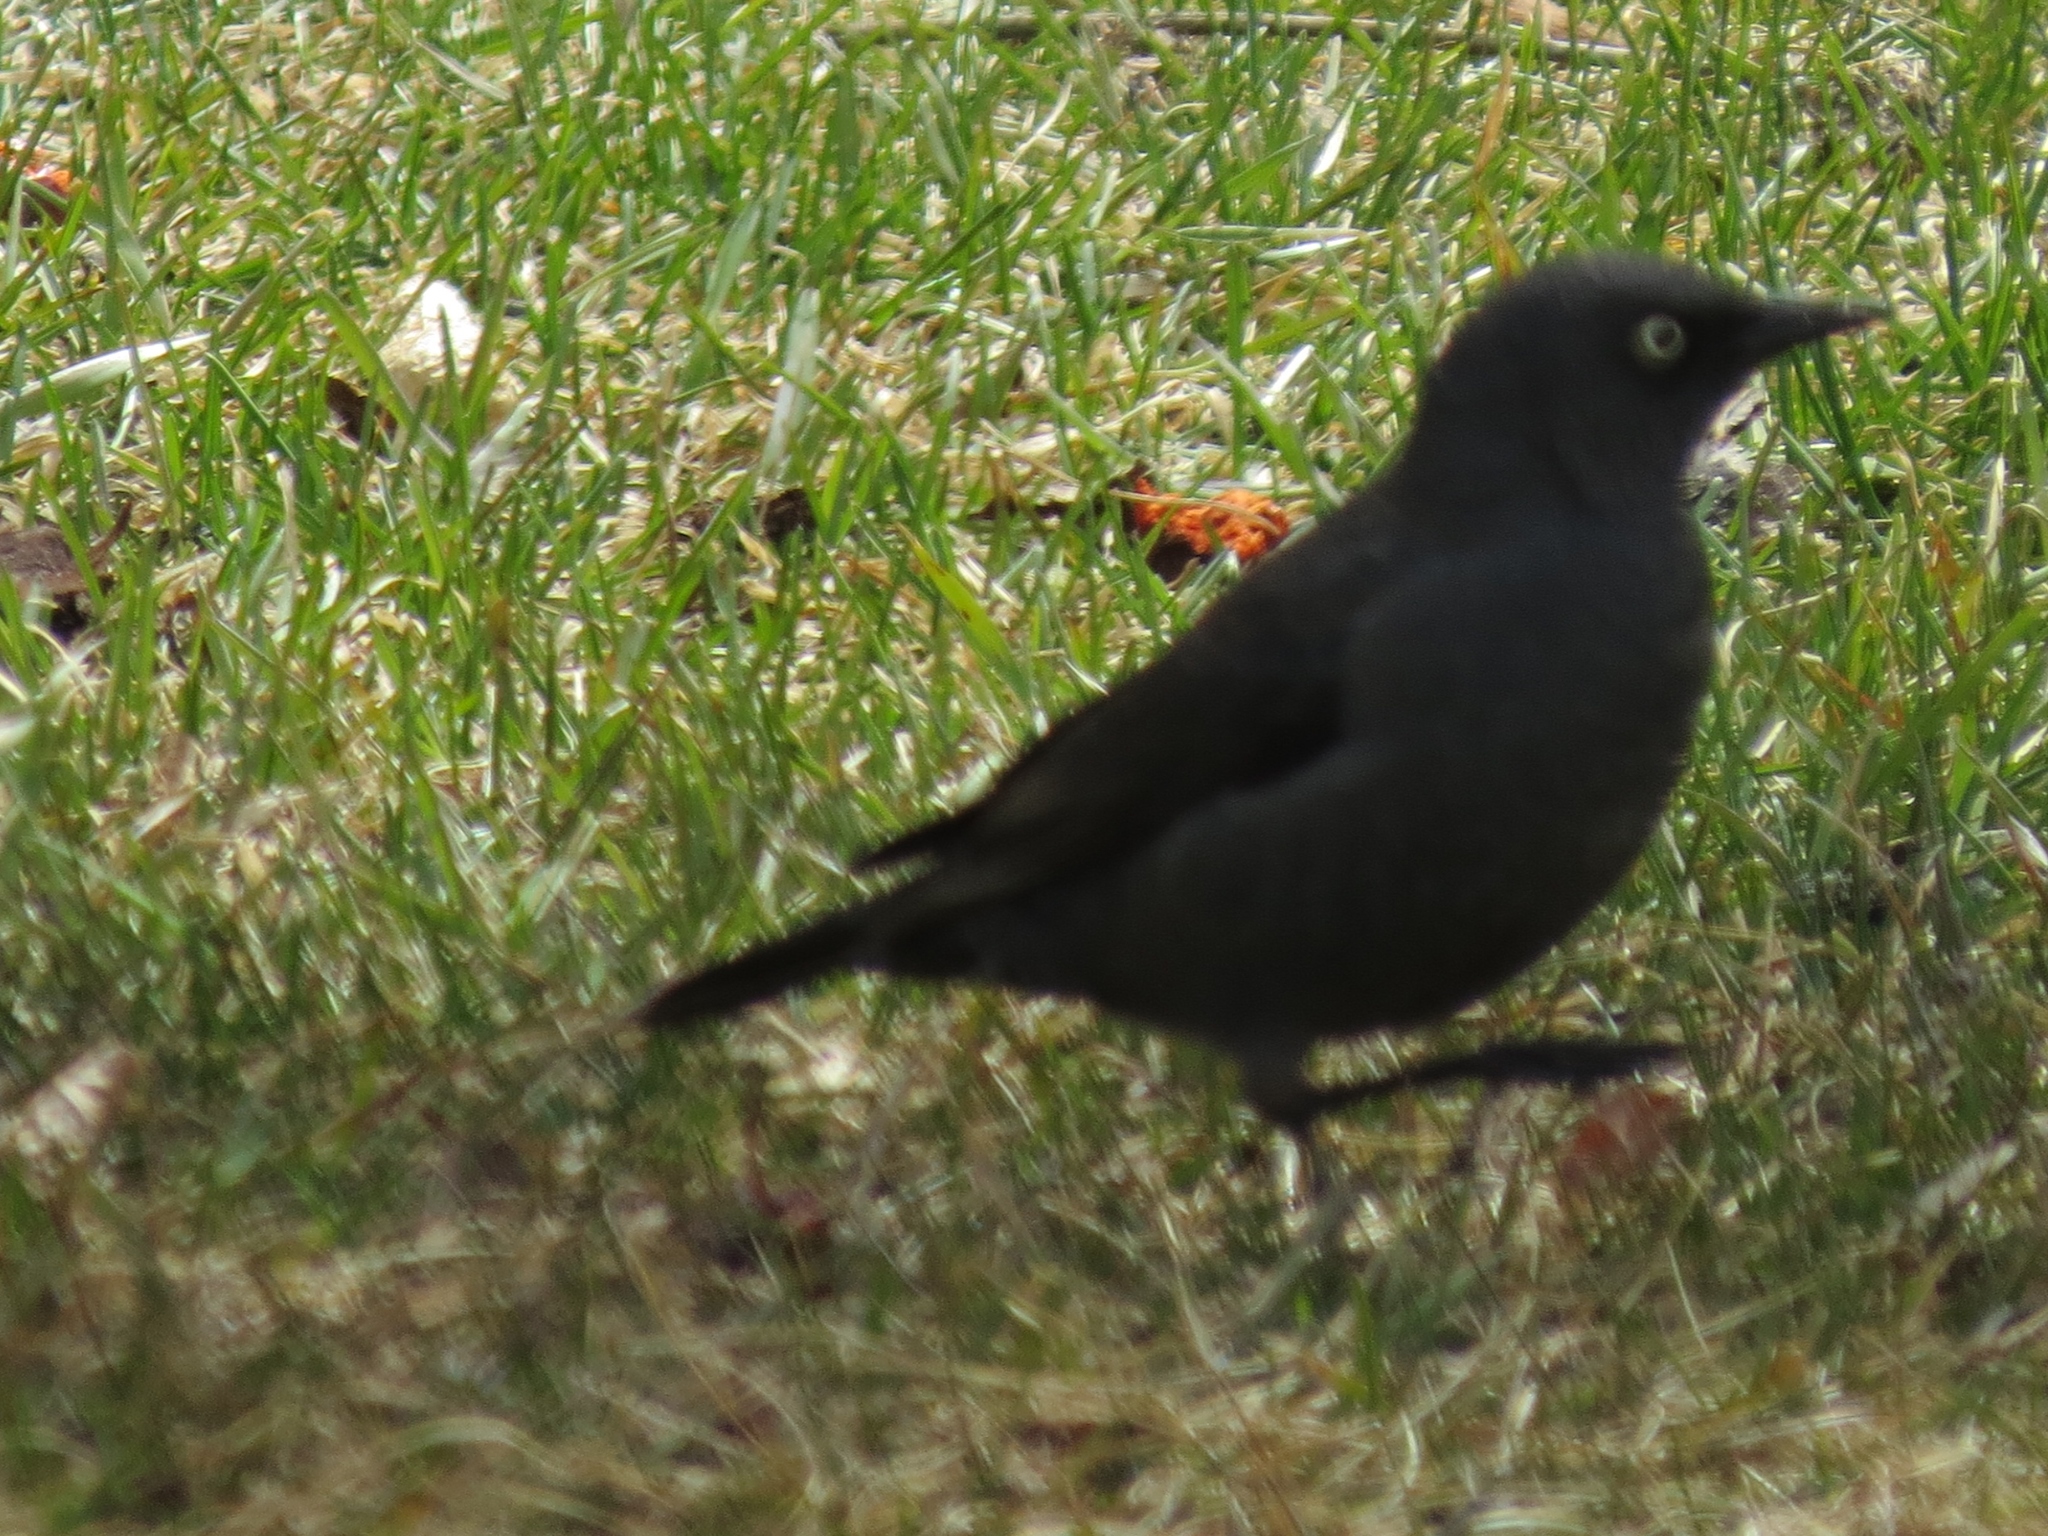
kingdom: Animalia
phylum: Chordata
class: Aves
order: Passeriformes
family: Icteridae
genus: Euphagus
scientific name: Euphagus carolinus
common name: Rusty blackbird
